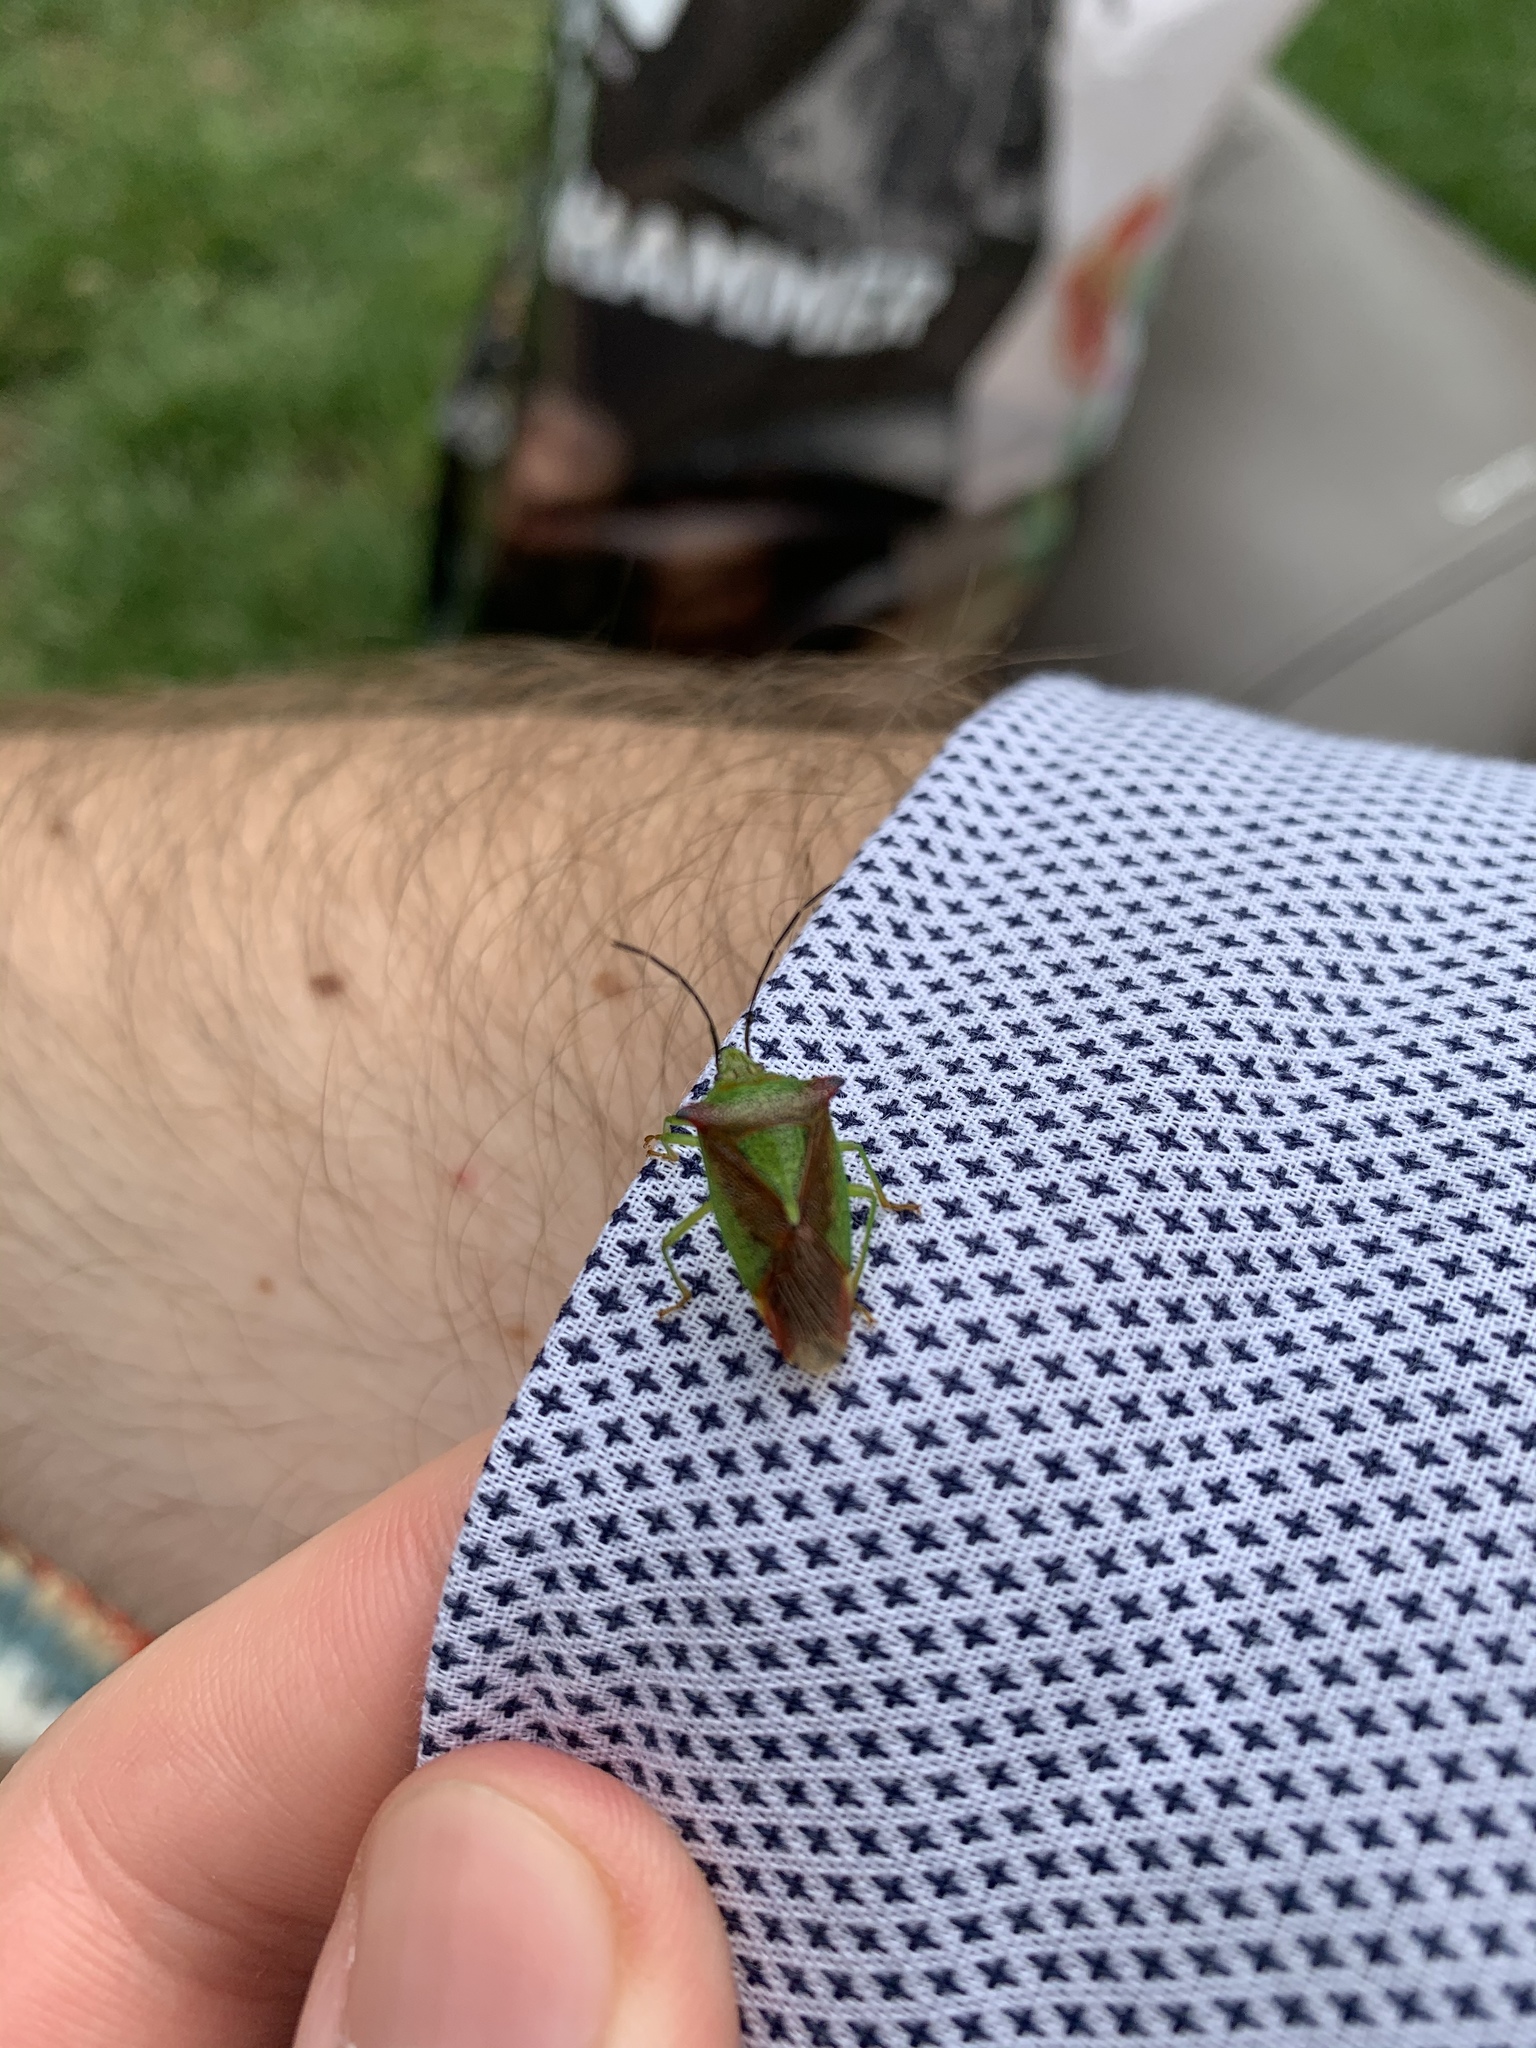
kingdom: Animalia
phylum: Arthropoda
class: Insecta
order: Hemiptera
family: Acanthosomatidae
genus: Acanthosoma
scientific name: Acanthosoma haemorrhoidale
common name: Hawthorn shieldbug
